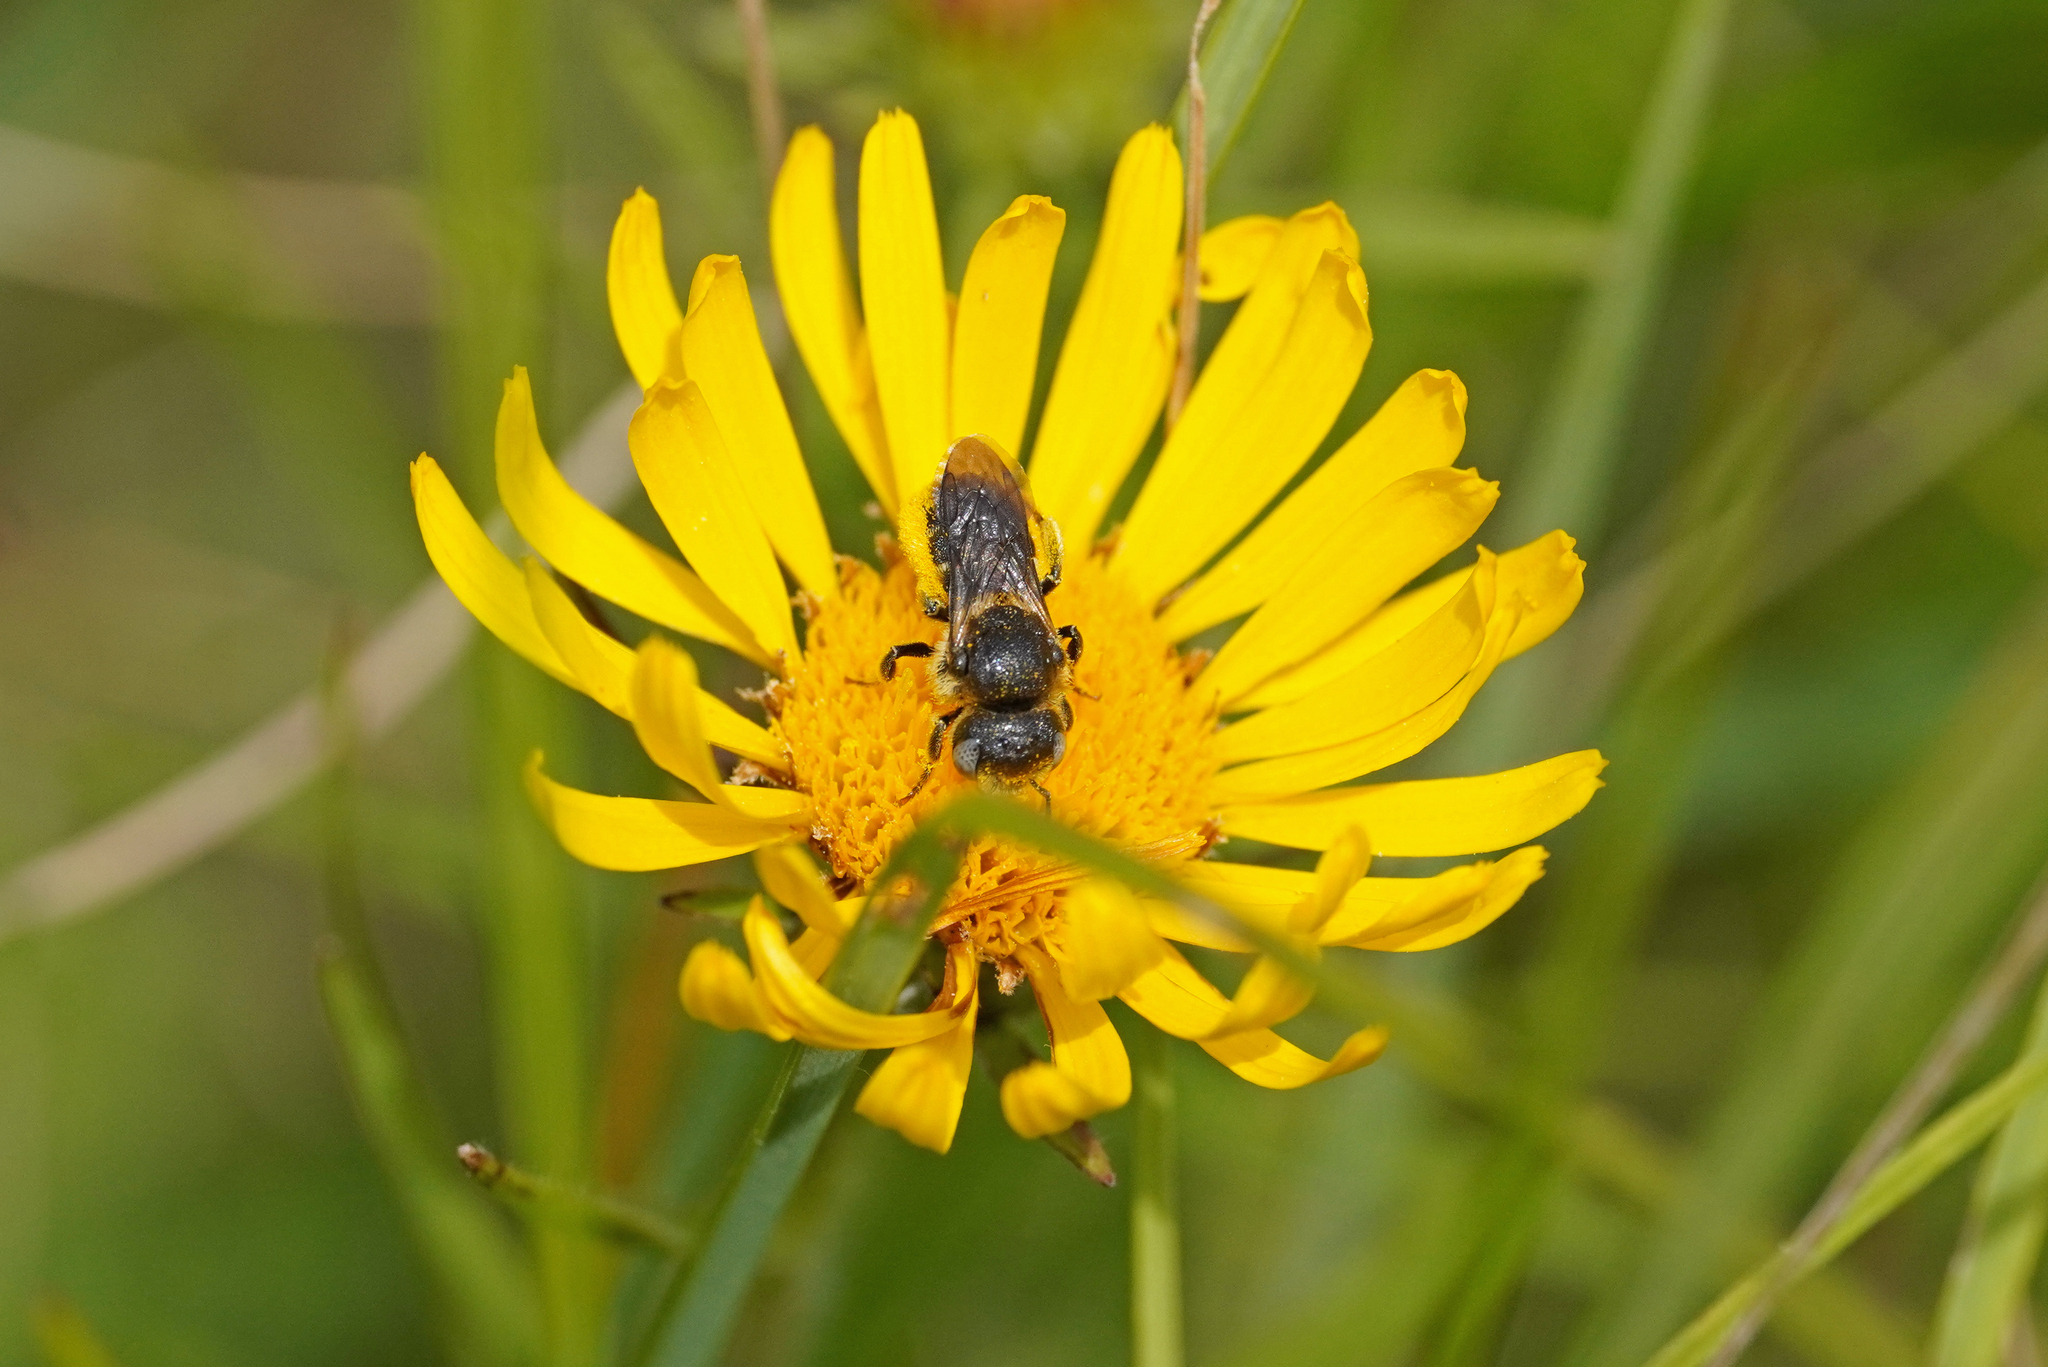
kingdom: Animalia
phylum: Arthropoda
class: Insecta
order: Hymenoptera
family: Megachilidae
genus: Osmia
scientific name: Osmia spinulosa
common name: Spined mason bee
